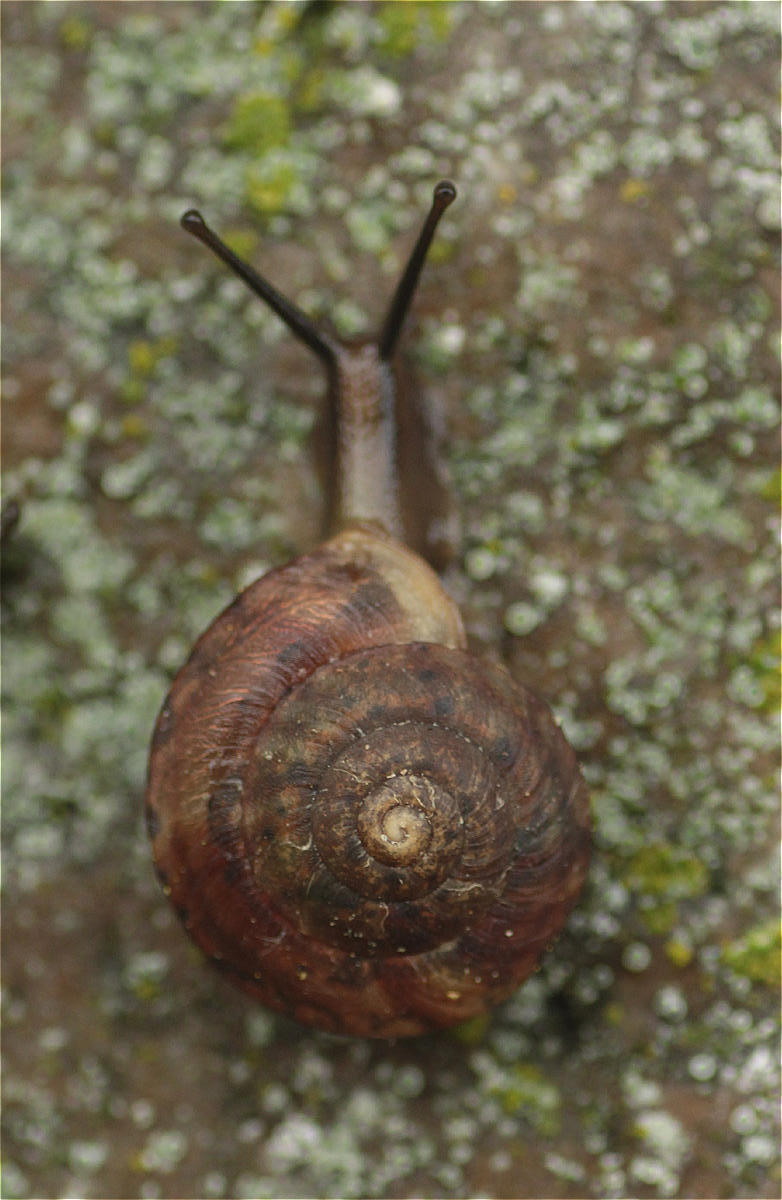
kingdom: Animalia
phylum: Mollusca
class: Gastropoda
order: Stylommatophora
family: Helicidae
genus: Helicigona
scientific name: Helicigona lapicida
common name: Lapidary snail
